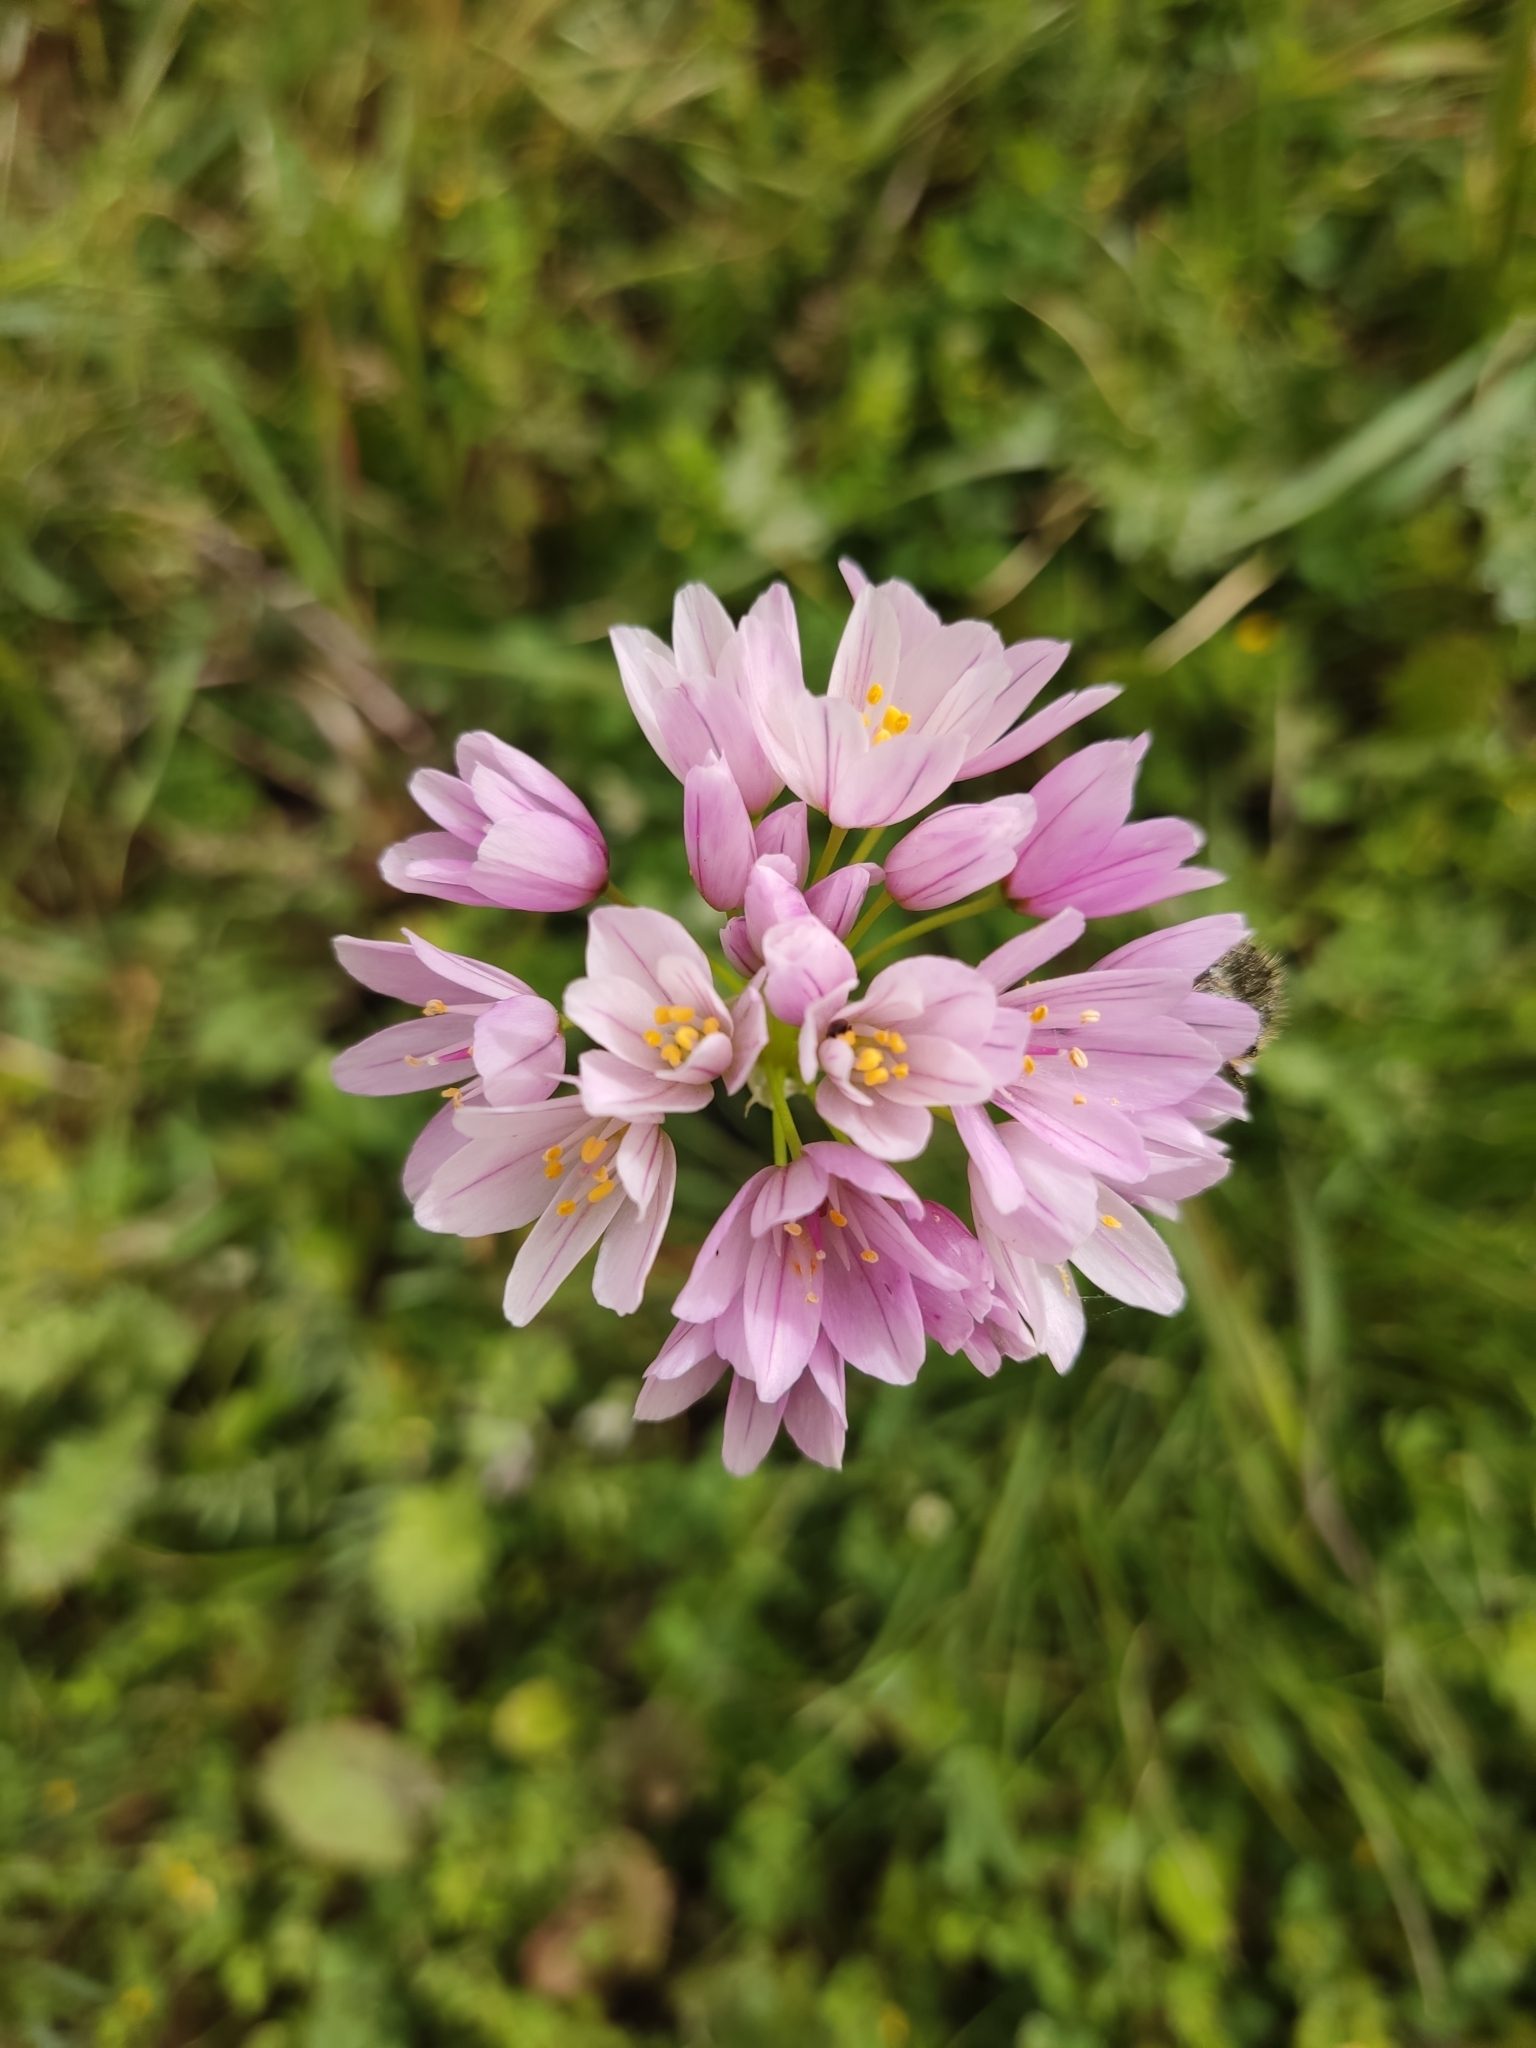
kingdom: Plantae
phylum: Tracheophyta
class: Liliopsida
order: Asparagales
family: Amaryllidaceae
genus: Allium
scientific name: Allium roseum
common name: Rosy garlic
